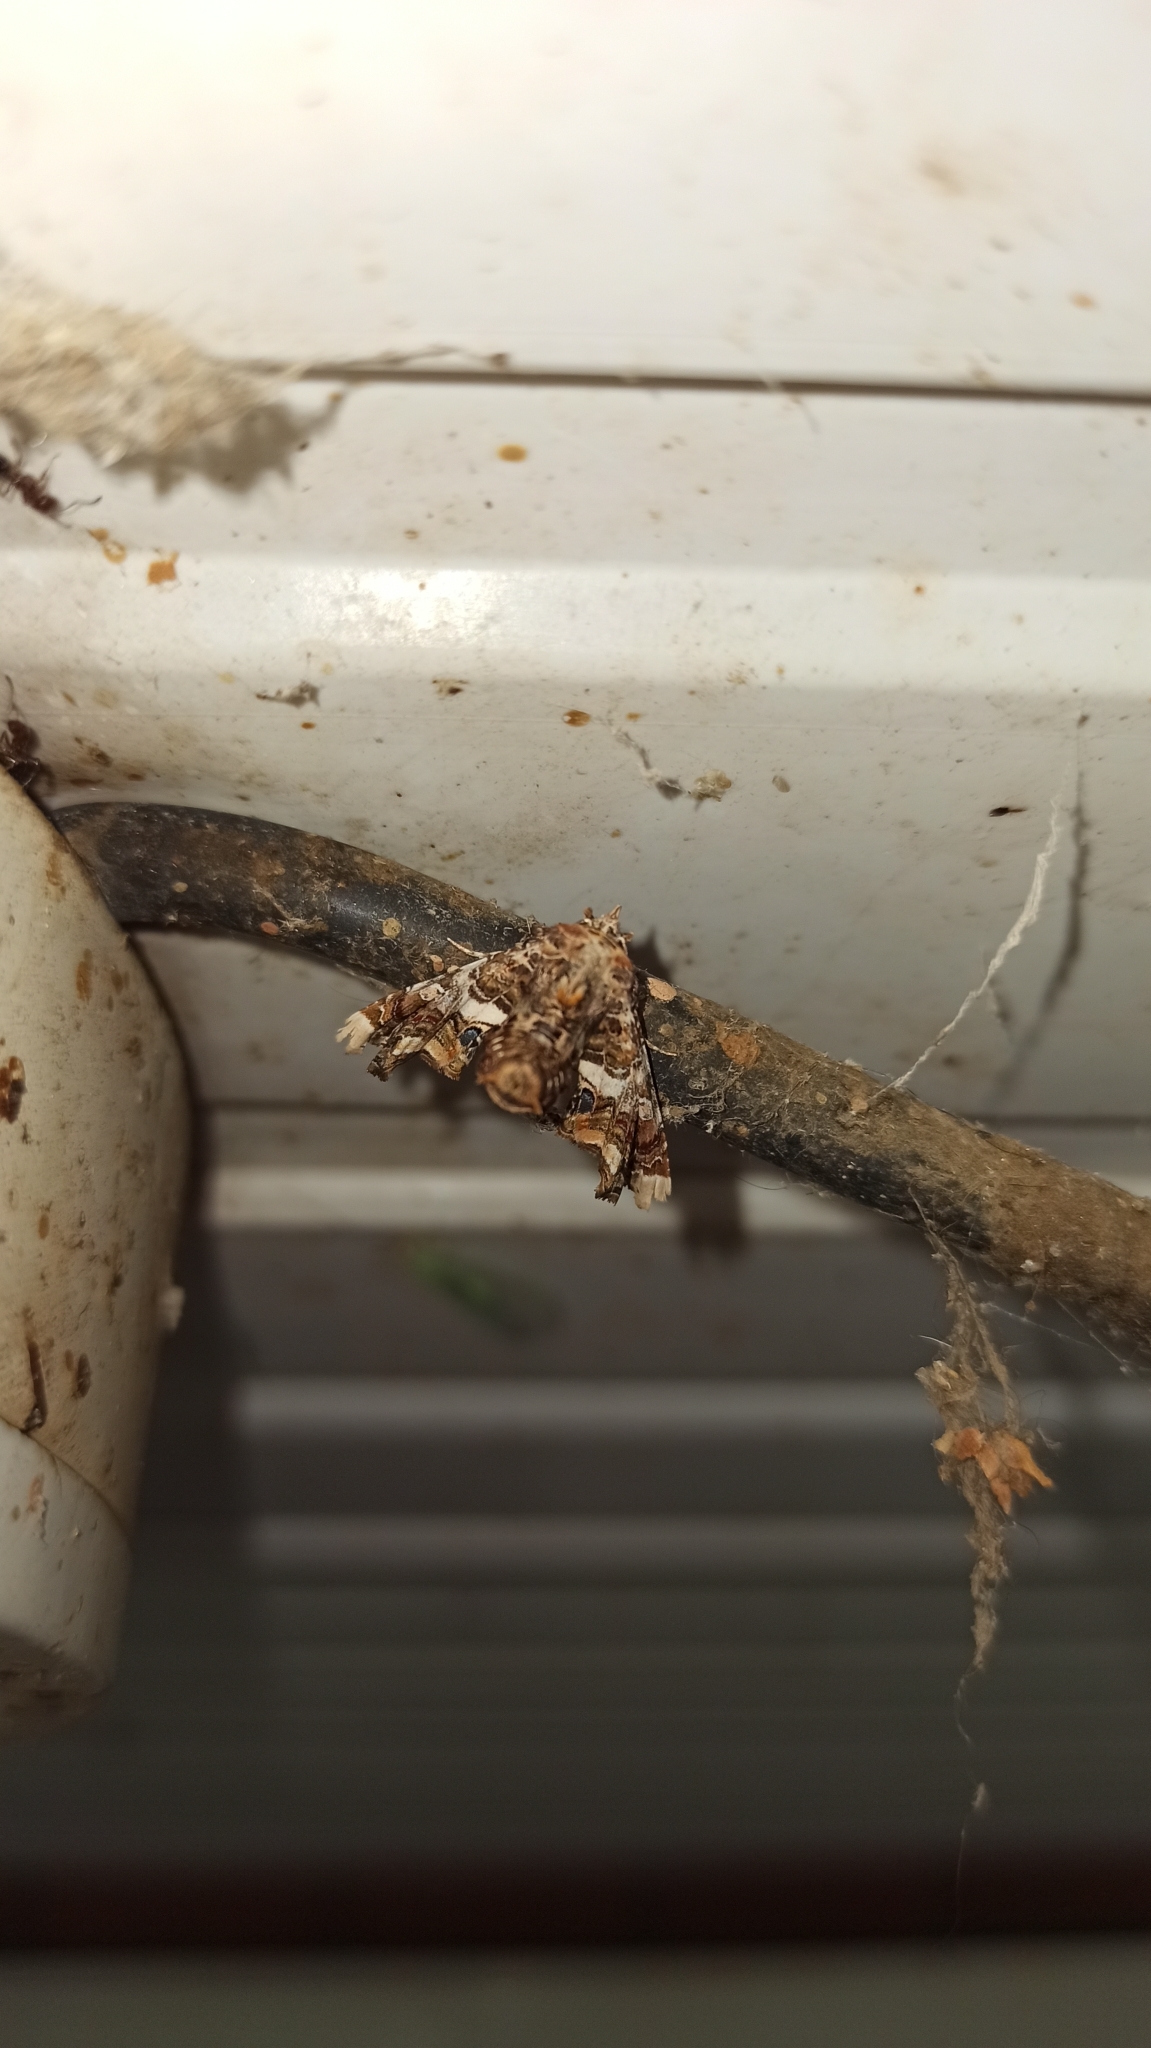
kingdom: Animalia
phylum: Arthropoda
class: Insecta
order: Lepidoptera
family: Euteliidae
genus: Eutelia
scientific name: Eutelia adulatrix
